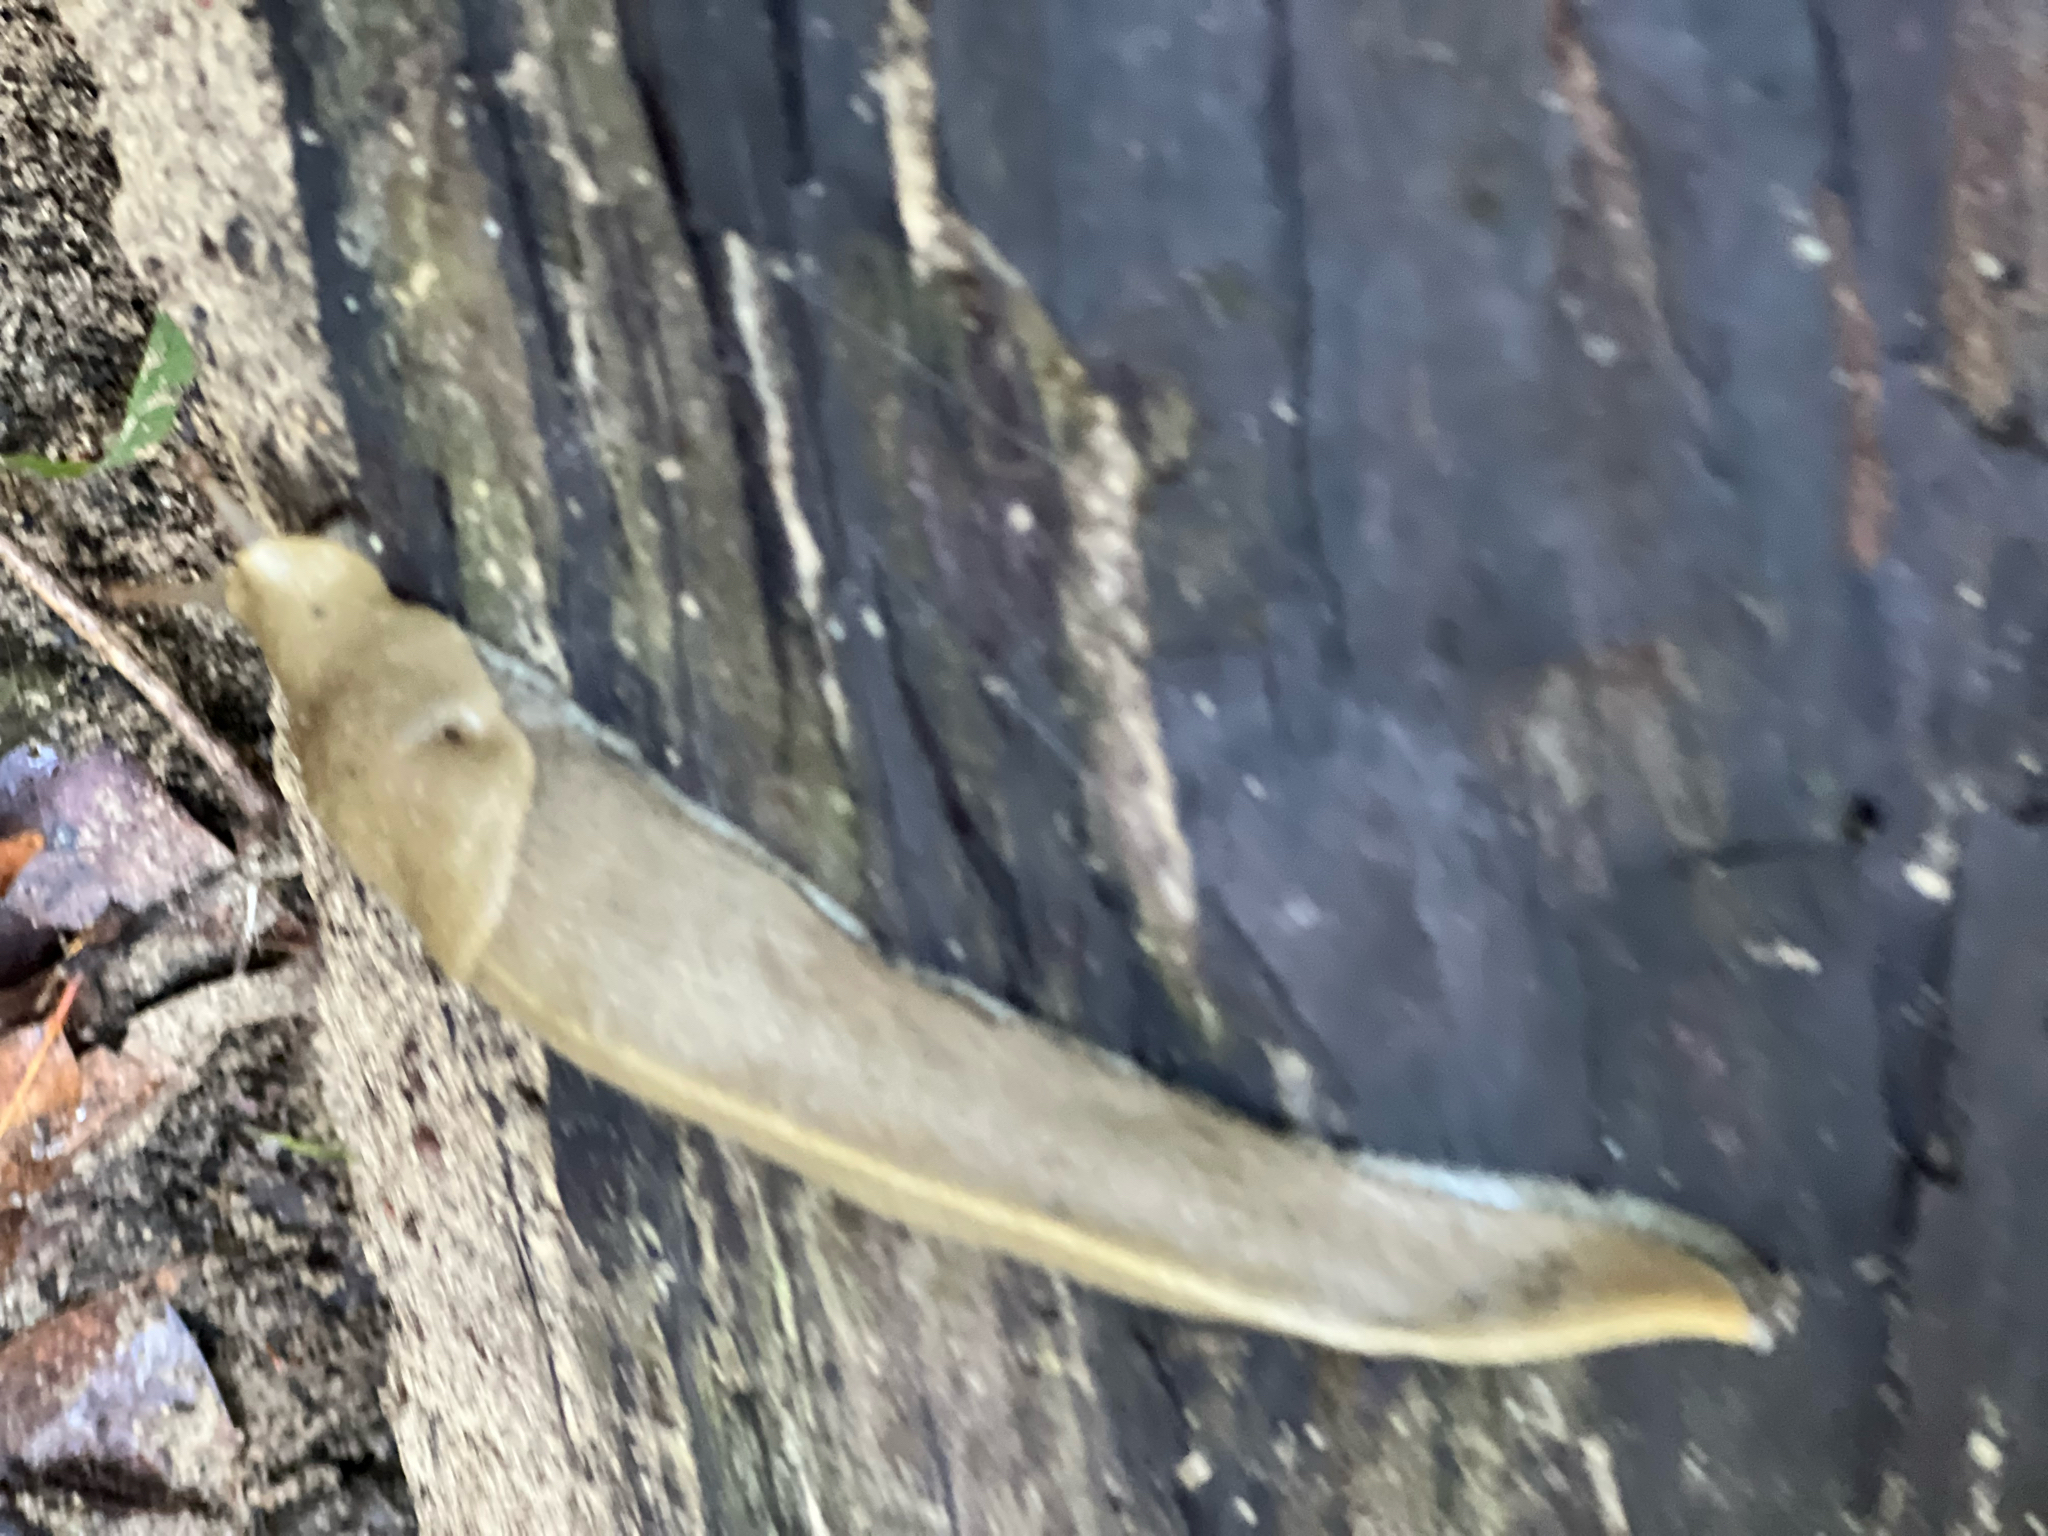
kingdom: Animalia
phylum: Mollusca
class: Gastropoda
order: Stylommatophora
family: Ariolimacidae
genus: Ariolimax
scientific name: Ariolimax buttoni
